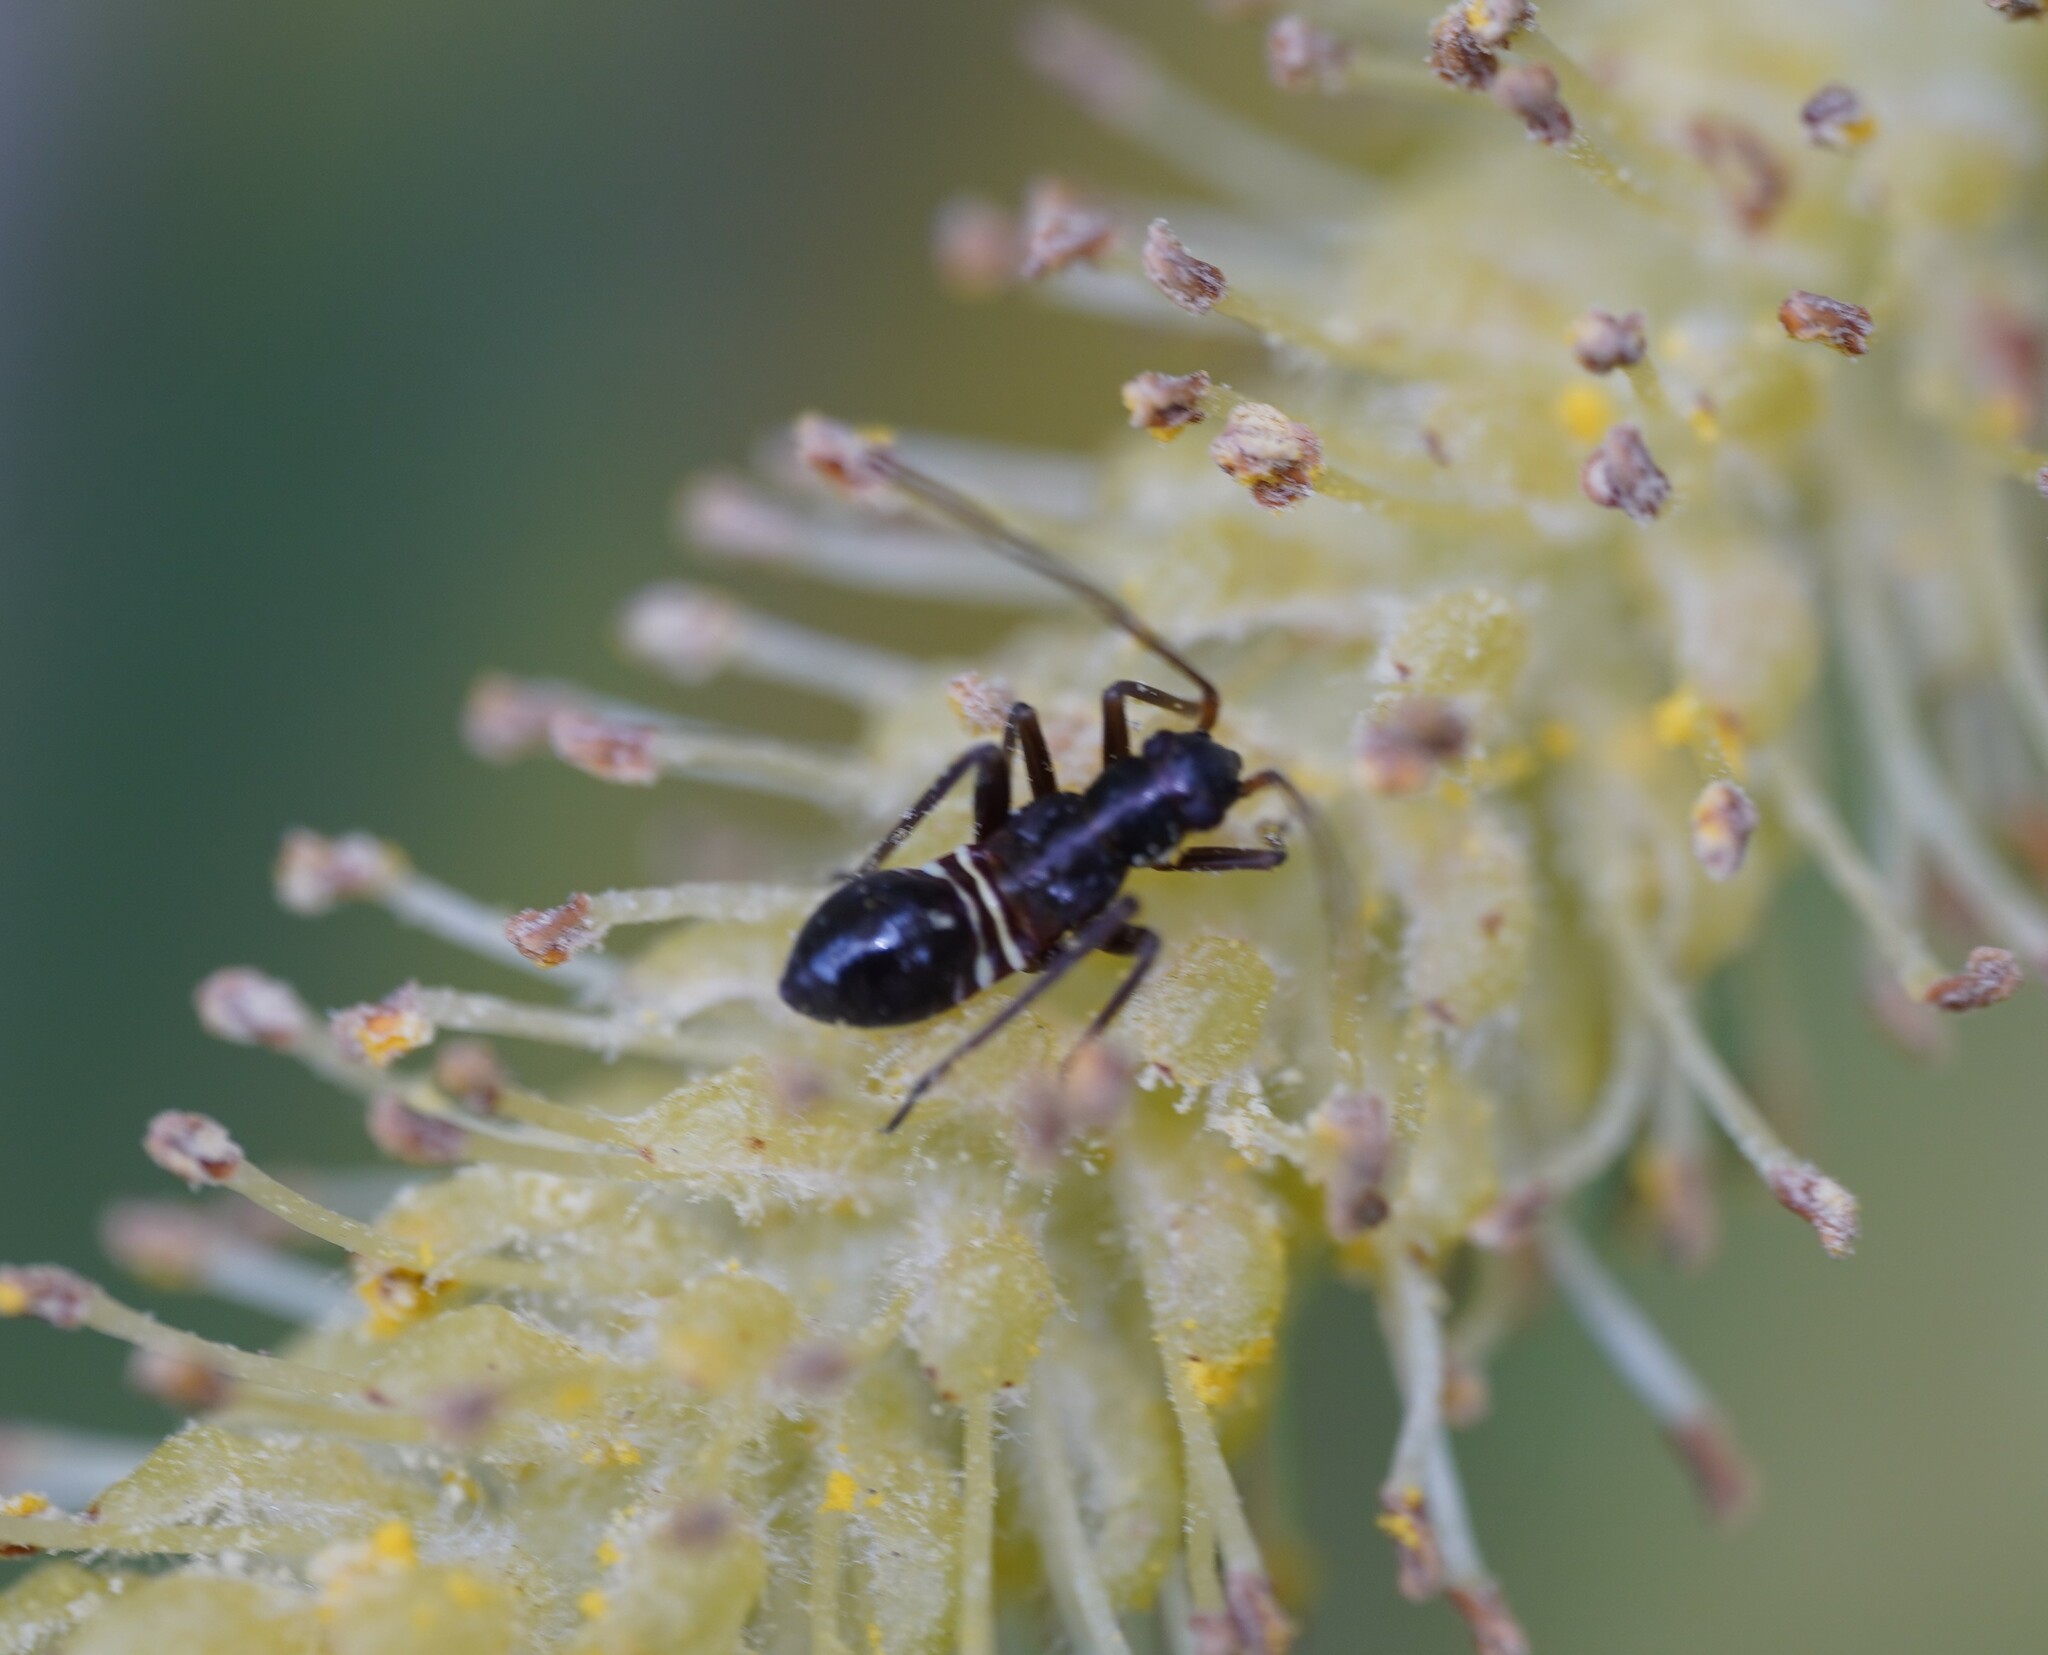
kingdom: Animalia
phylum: Arthropoda
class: Insecta
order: Hemiptera
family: Miridae
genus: Miris
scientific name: Miris striatus
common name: Fine streaked bugkin
